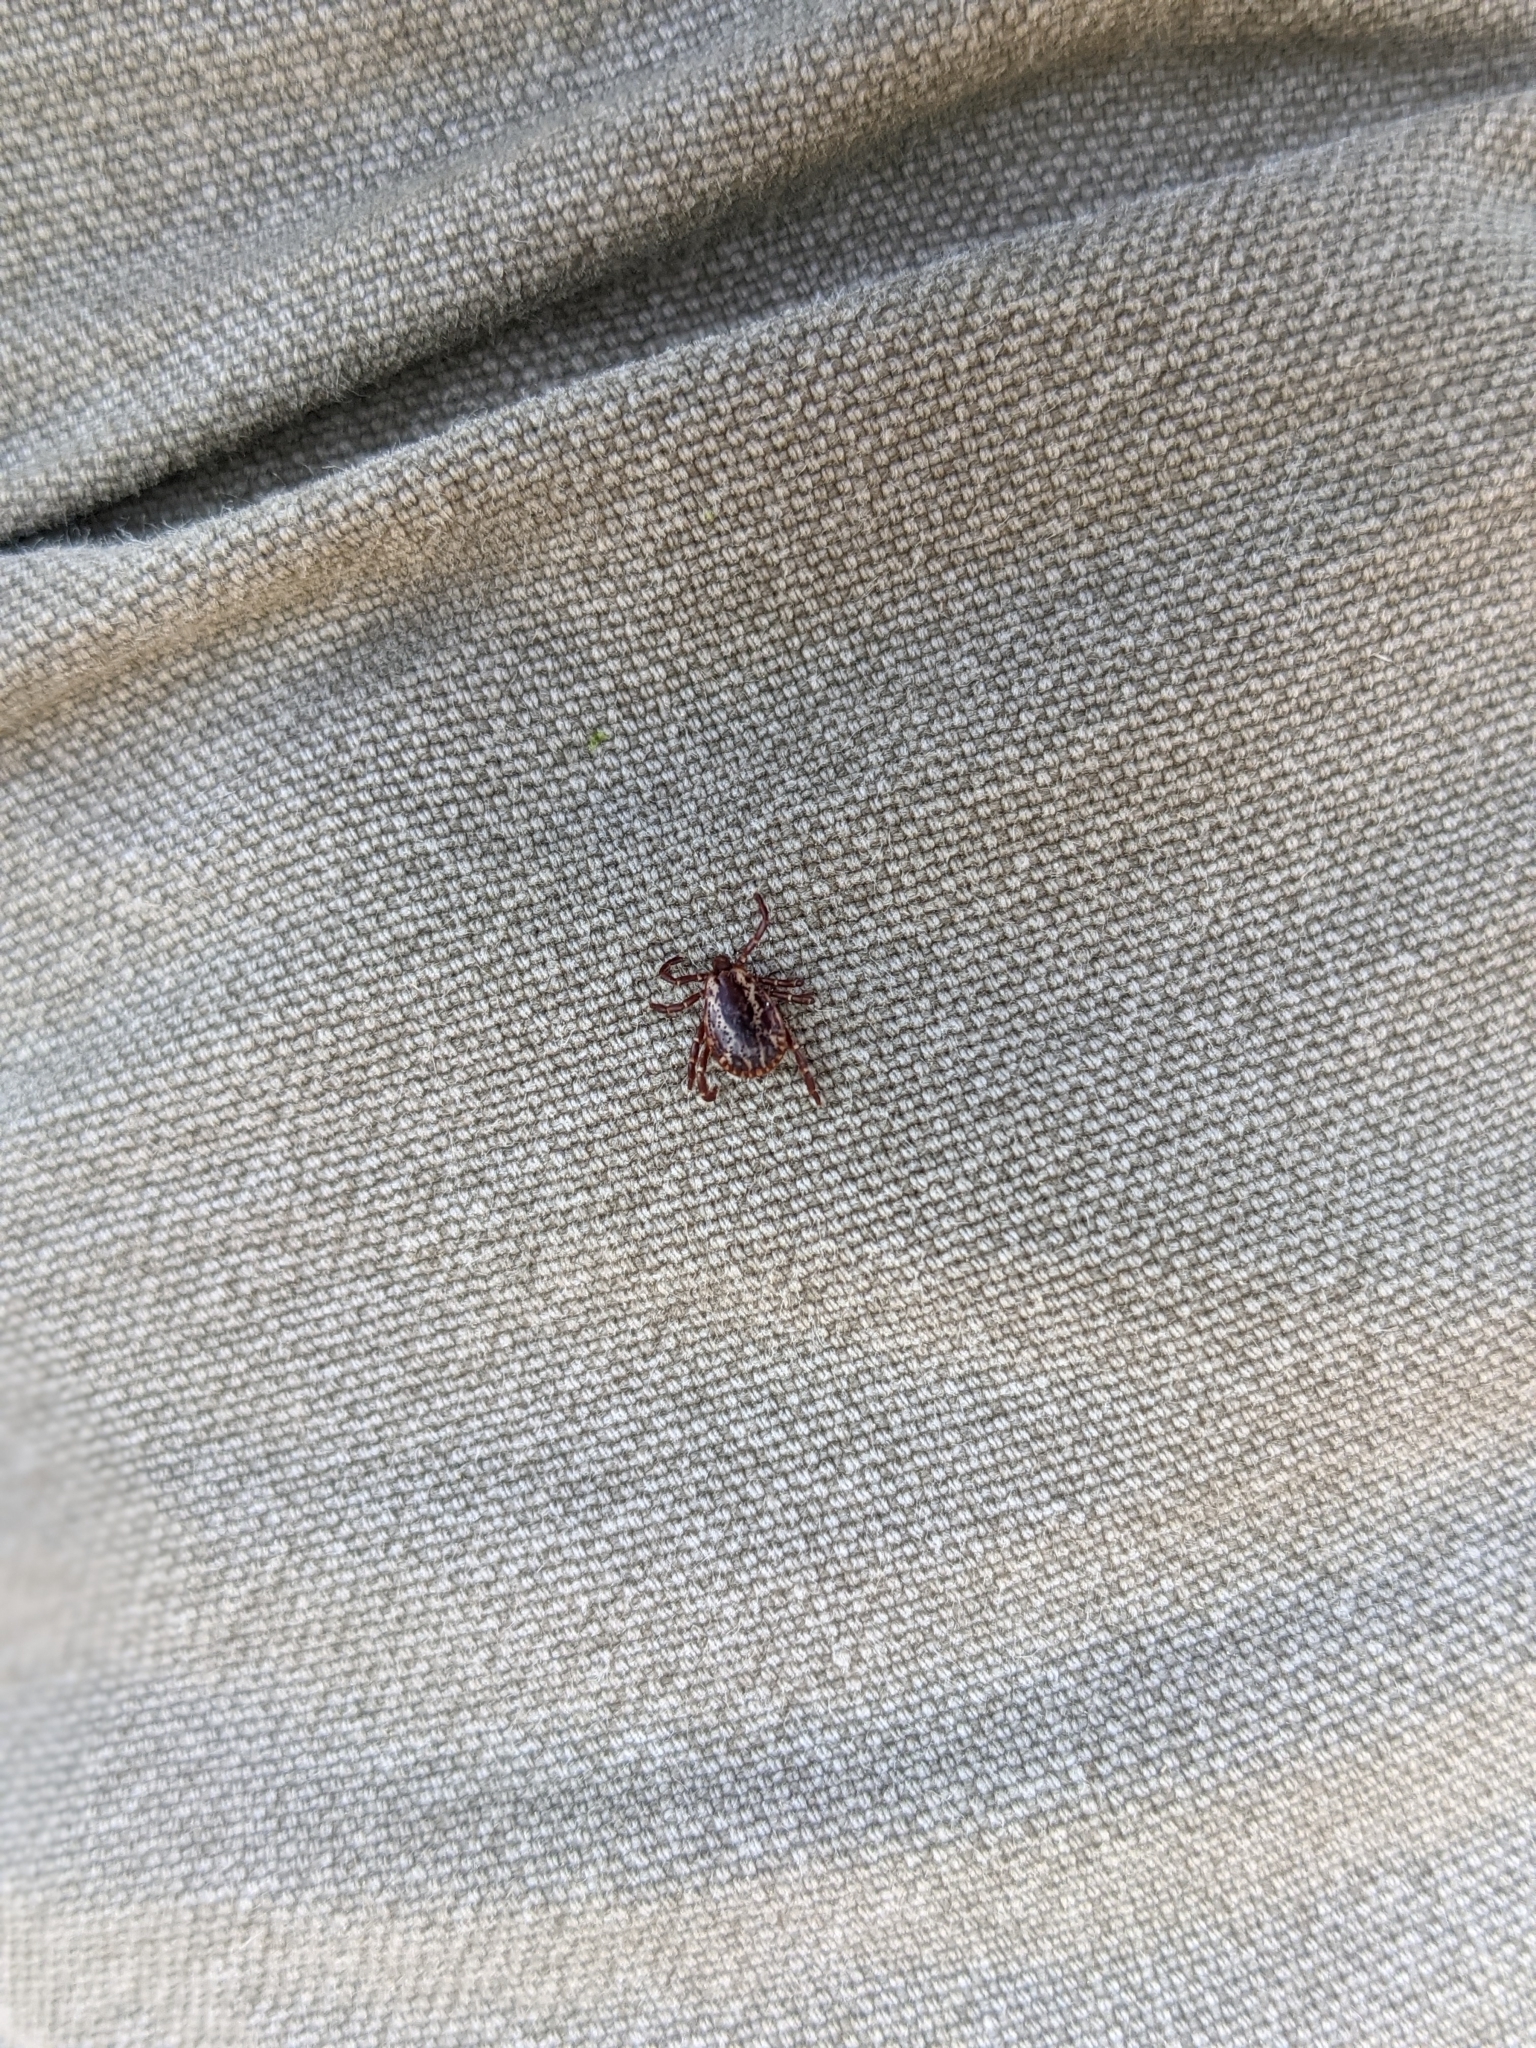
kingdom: Animalia
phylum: Arthropoda
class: Arachnida
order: Ixodida
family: Ixodidae
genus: Dermacentor
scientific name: Dermacentor variabilis
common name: American dog tick
